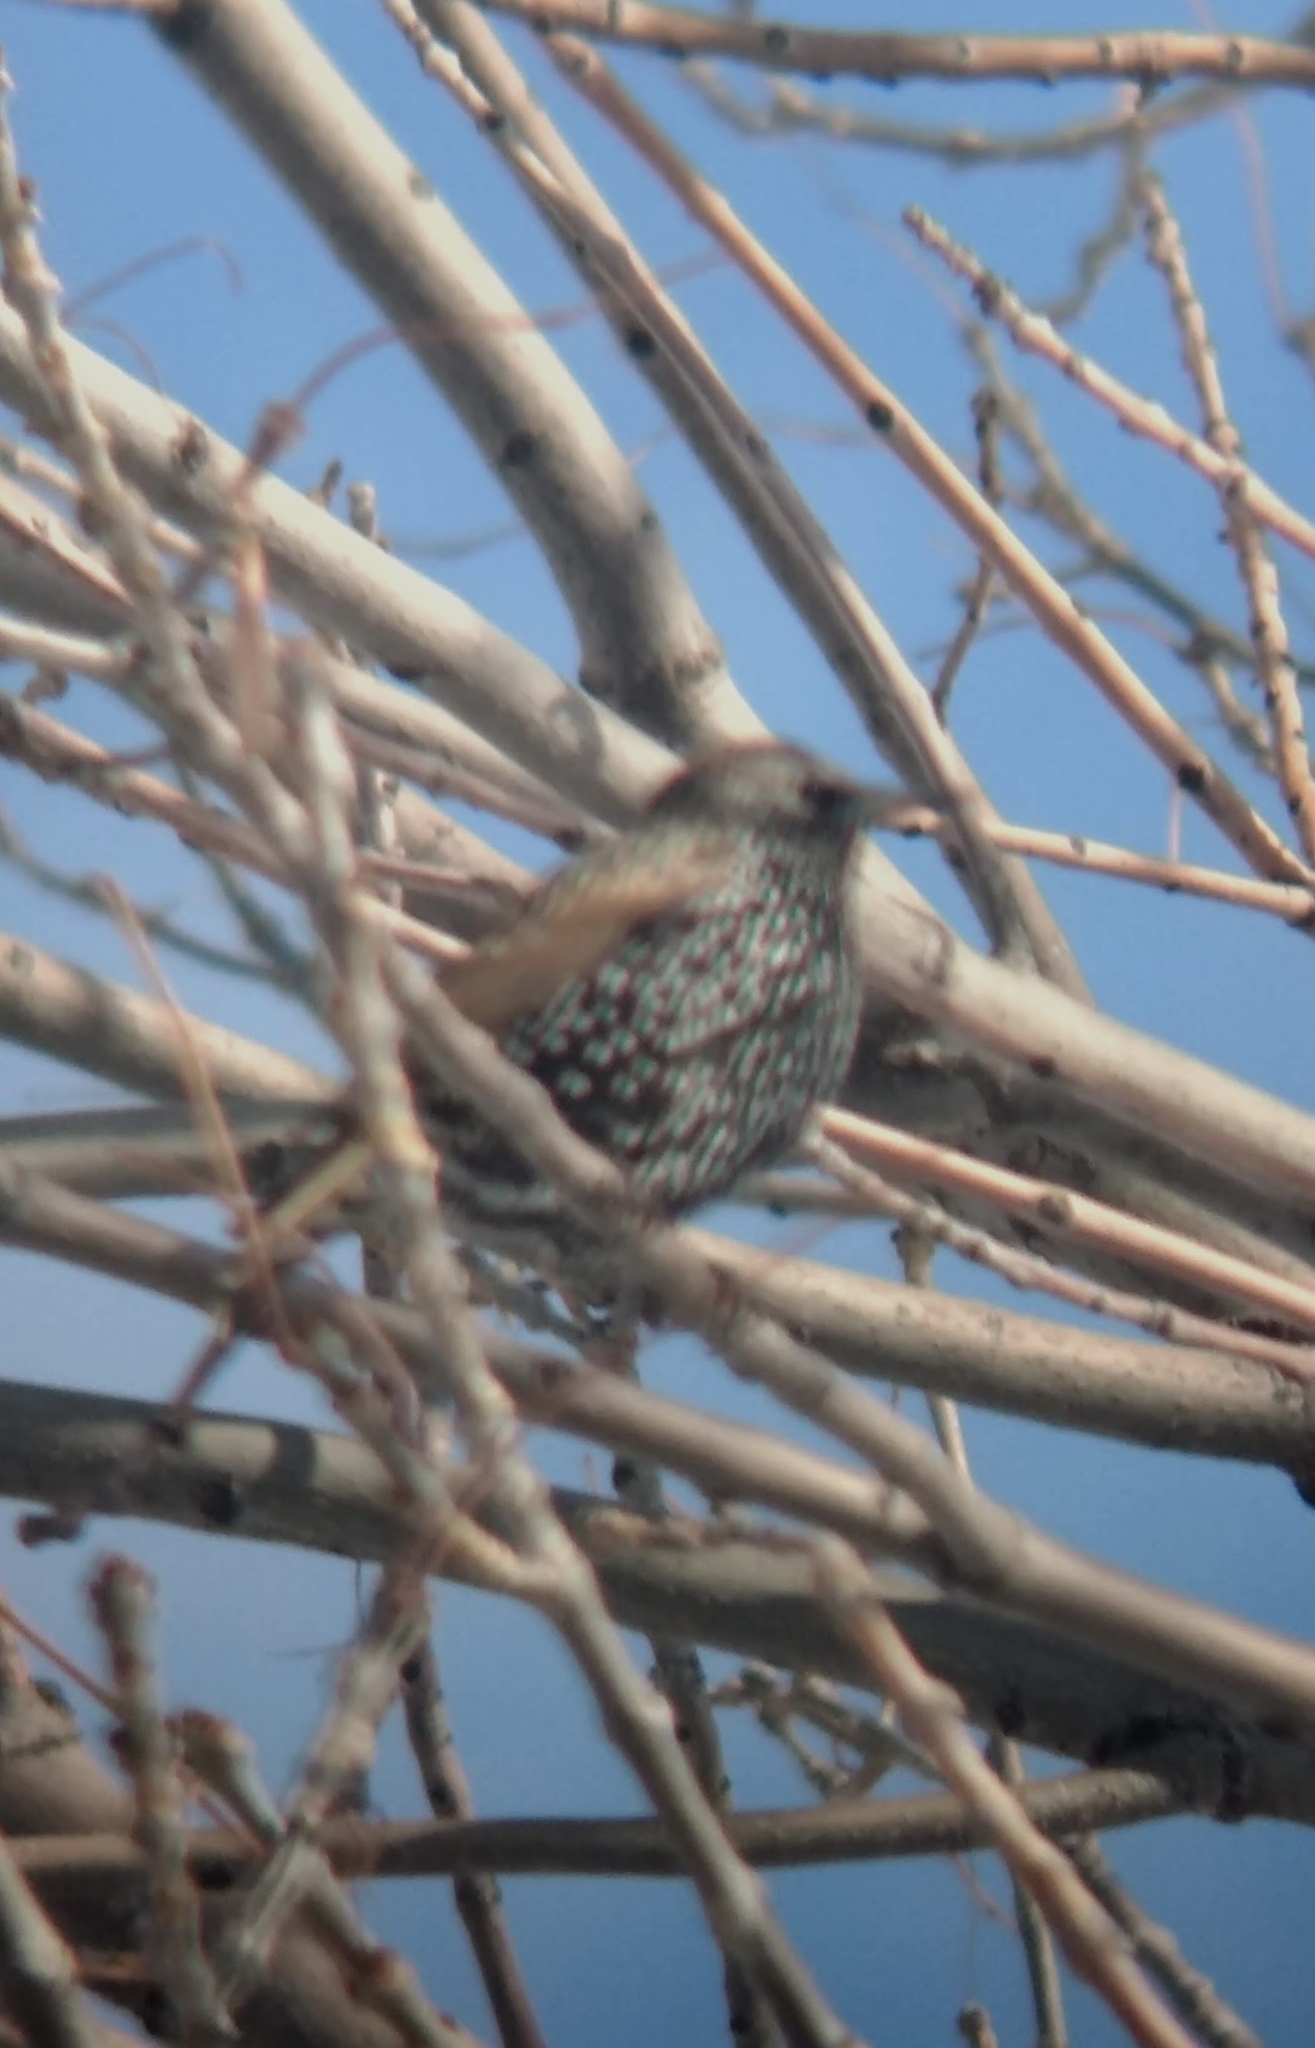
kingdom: Animalia
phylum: Chordata
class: Aves
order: Passeriformes
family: Sturnidae
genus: Sturnus
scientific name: Sturnus vulgaris
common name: Common starling
